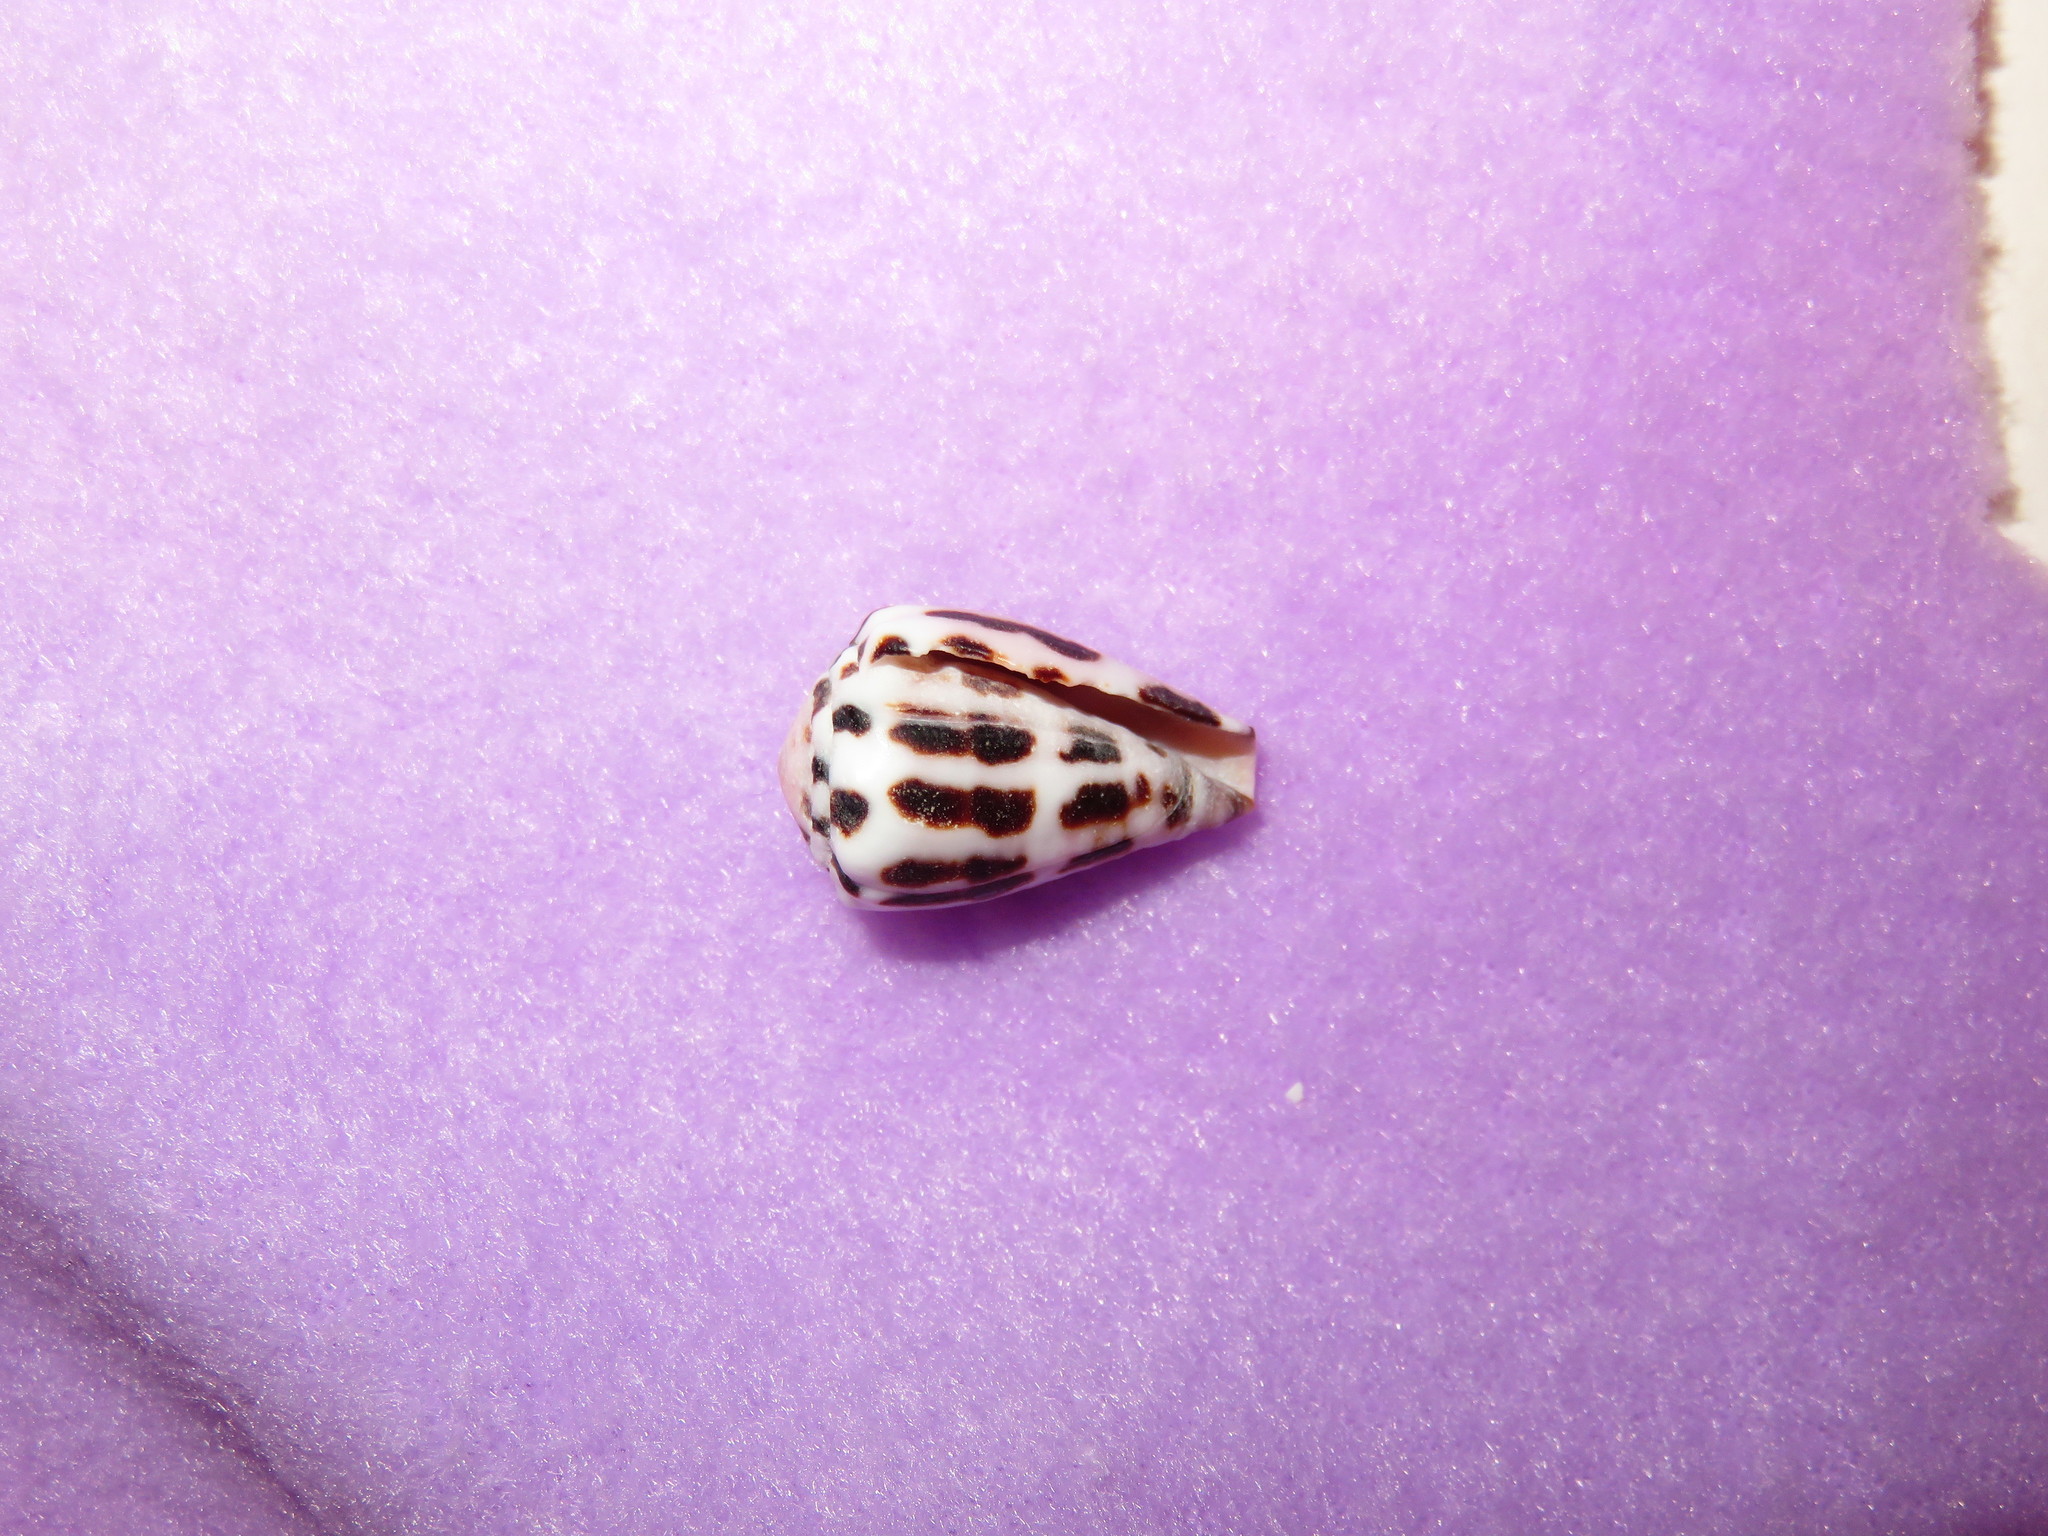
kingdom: Animalia
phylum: Mollusca
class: Gastropoda
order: Neogastropoda
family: Conidae
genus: Conus
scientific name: Conus ebraeus
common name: Hebrew cone
